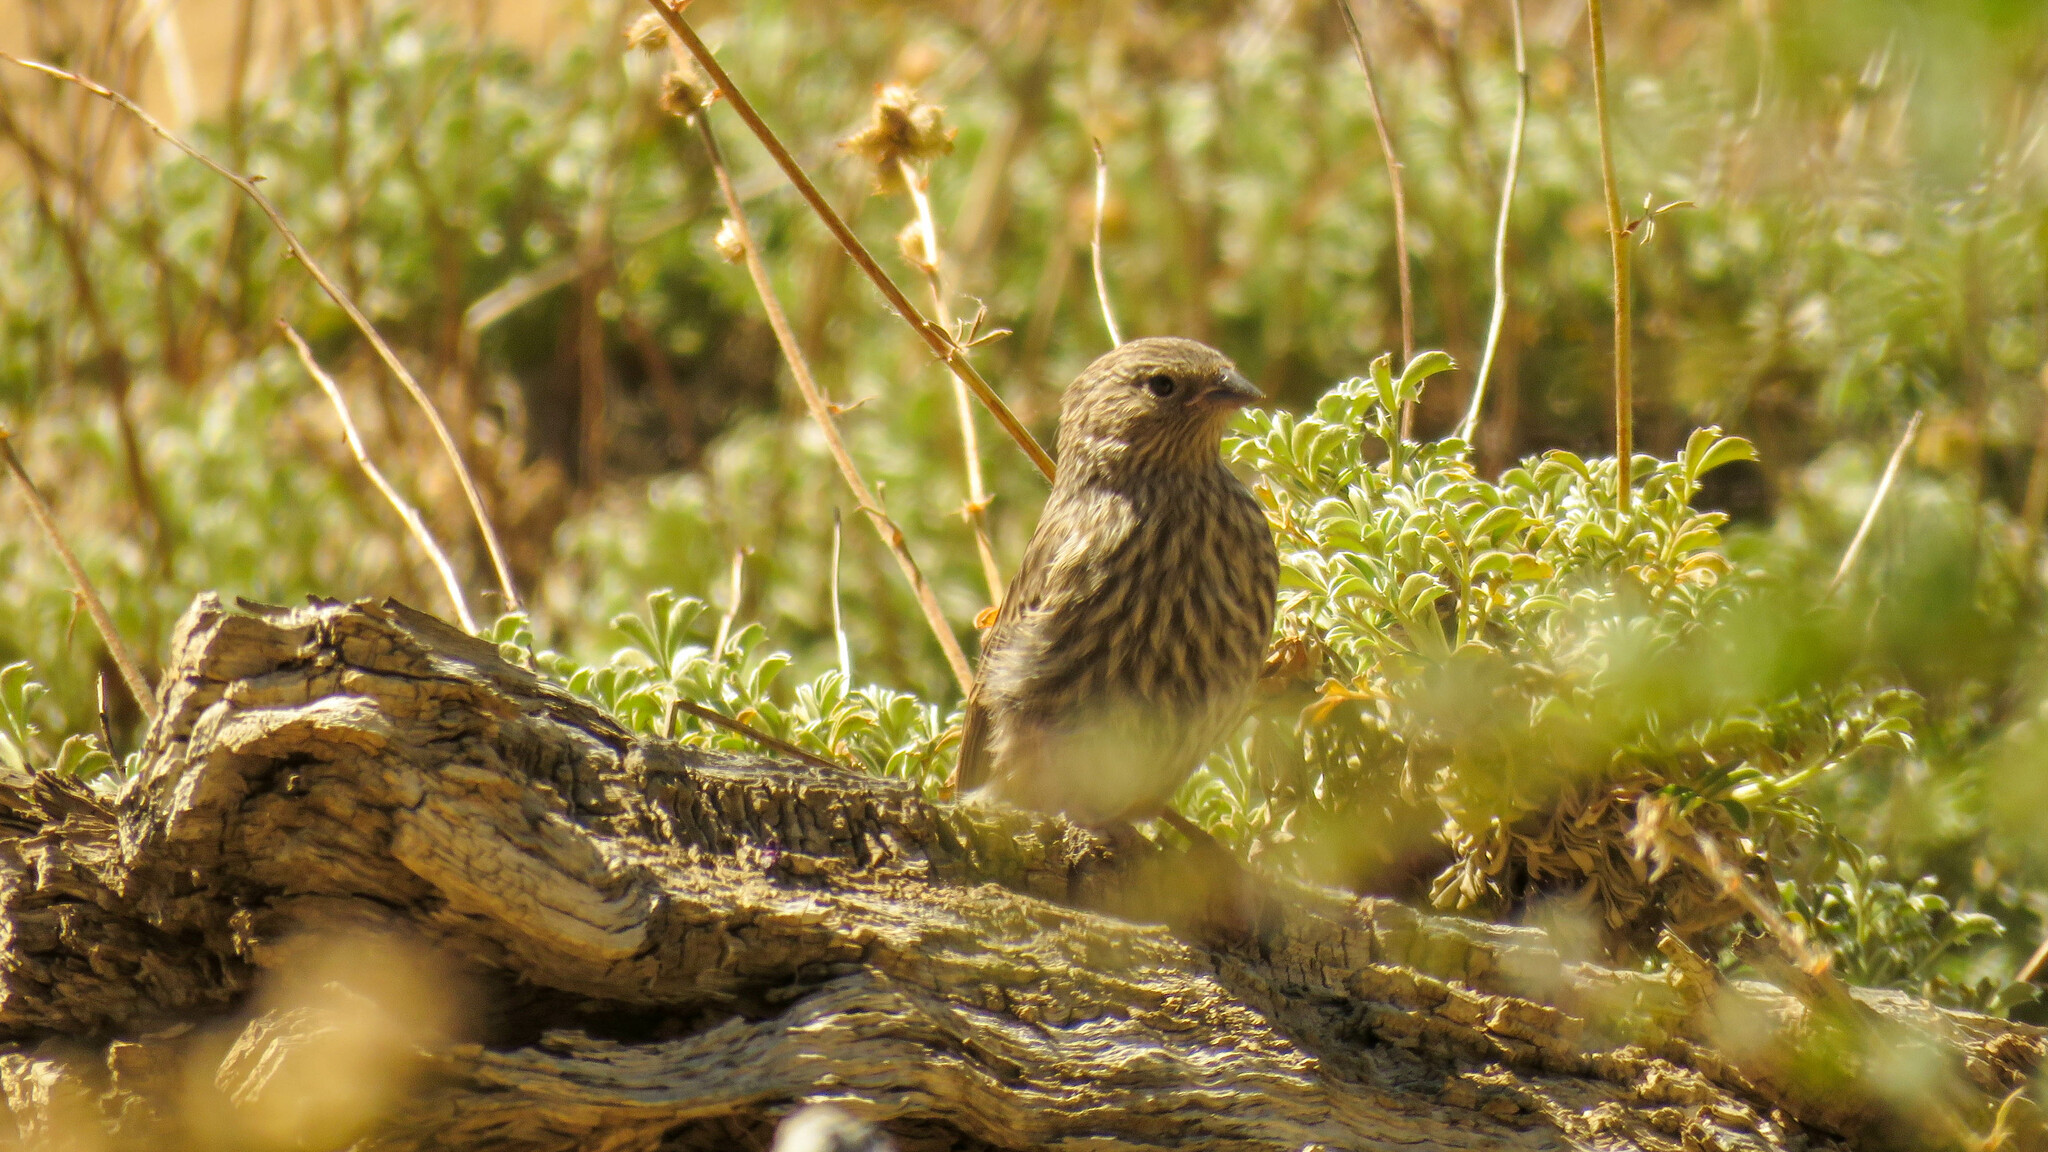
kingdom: Animalia
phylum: Chordata
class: Aves
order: Passeriformes
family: Thraupidae
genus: Geospizopsis
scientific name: Geospizopsis unicolor
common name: Plumbeous sierra-finch
